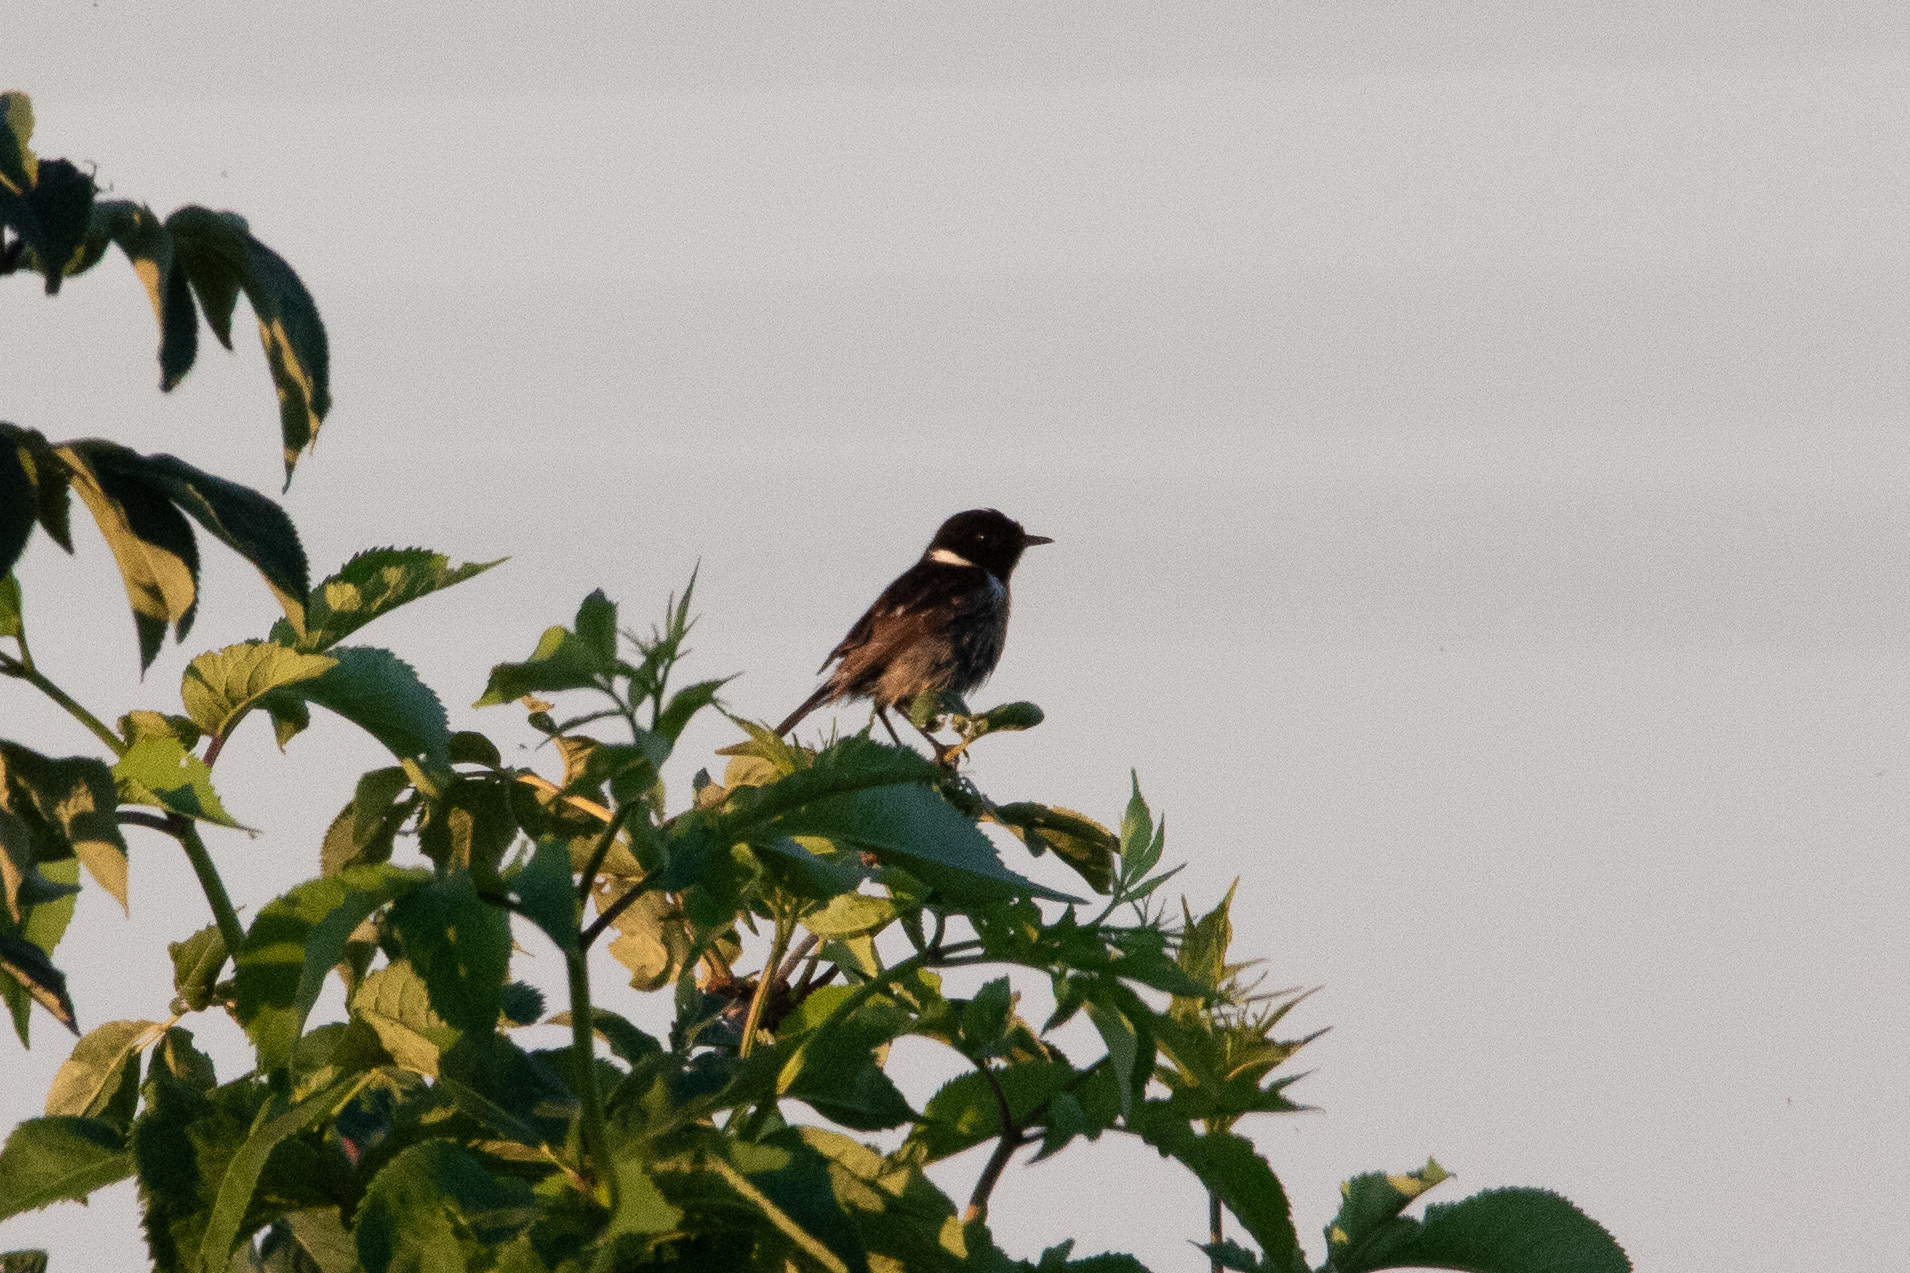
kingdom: Animalia
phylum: Chordata
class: Aves
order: Passeriformes
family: Muscicapidae
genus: Saxicola
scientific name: Saxicola rubicola
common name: European stonechat
